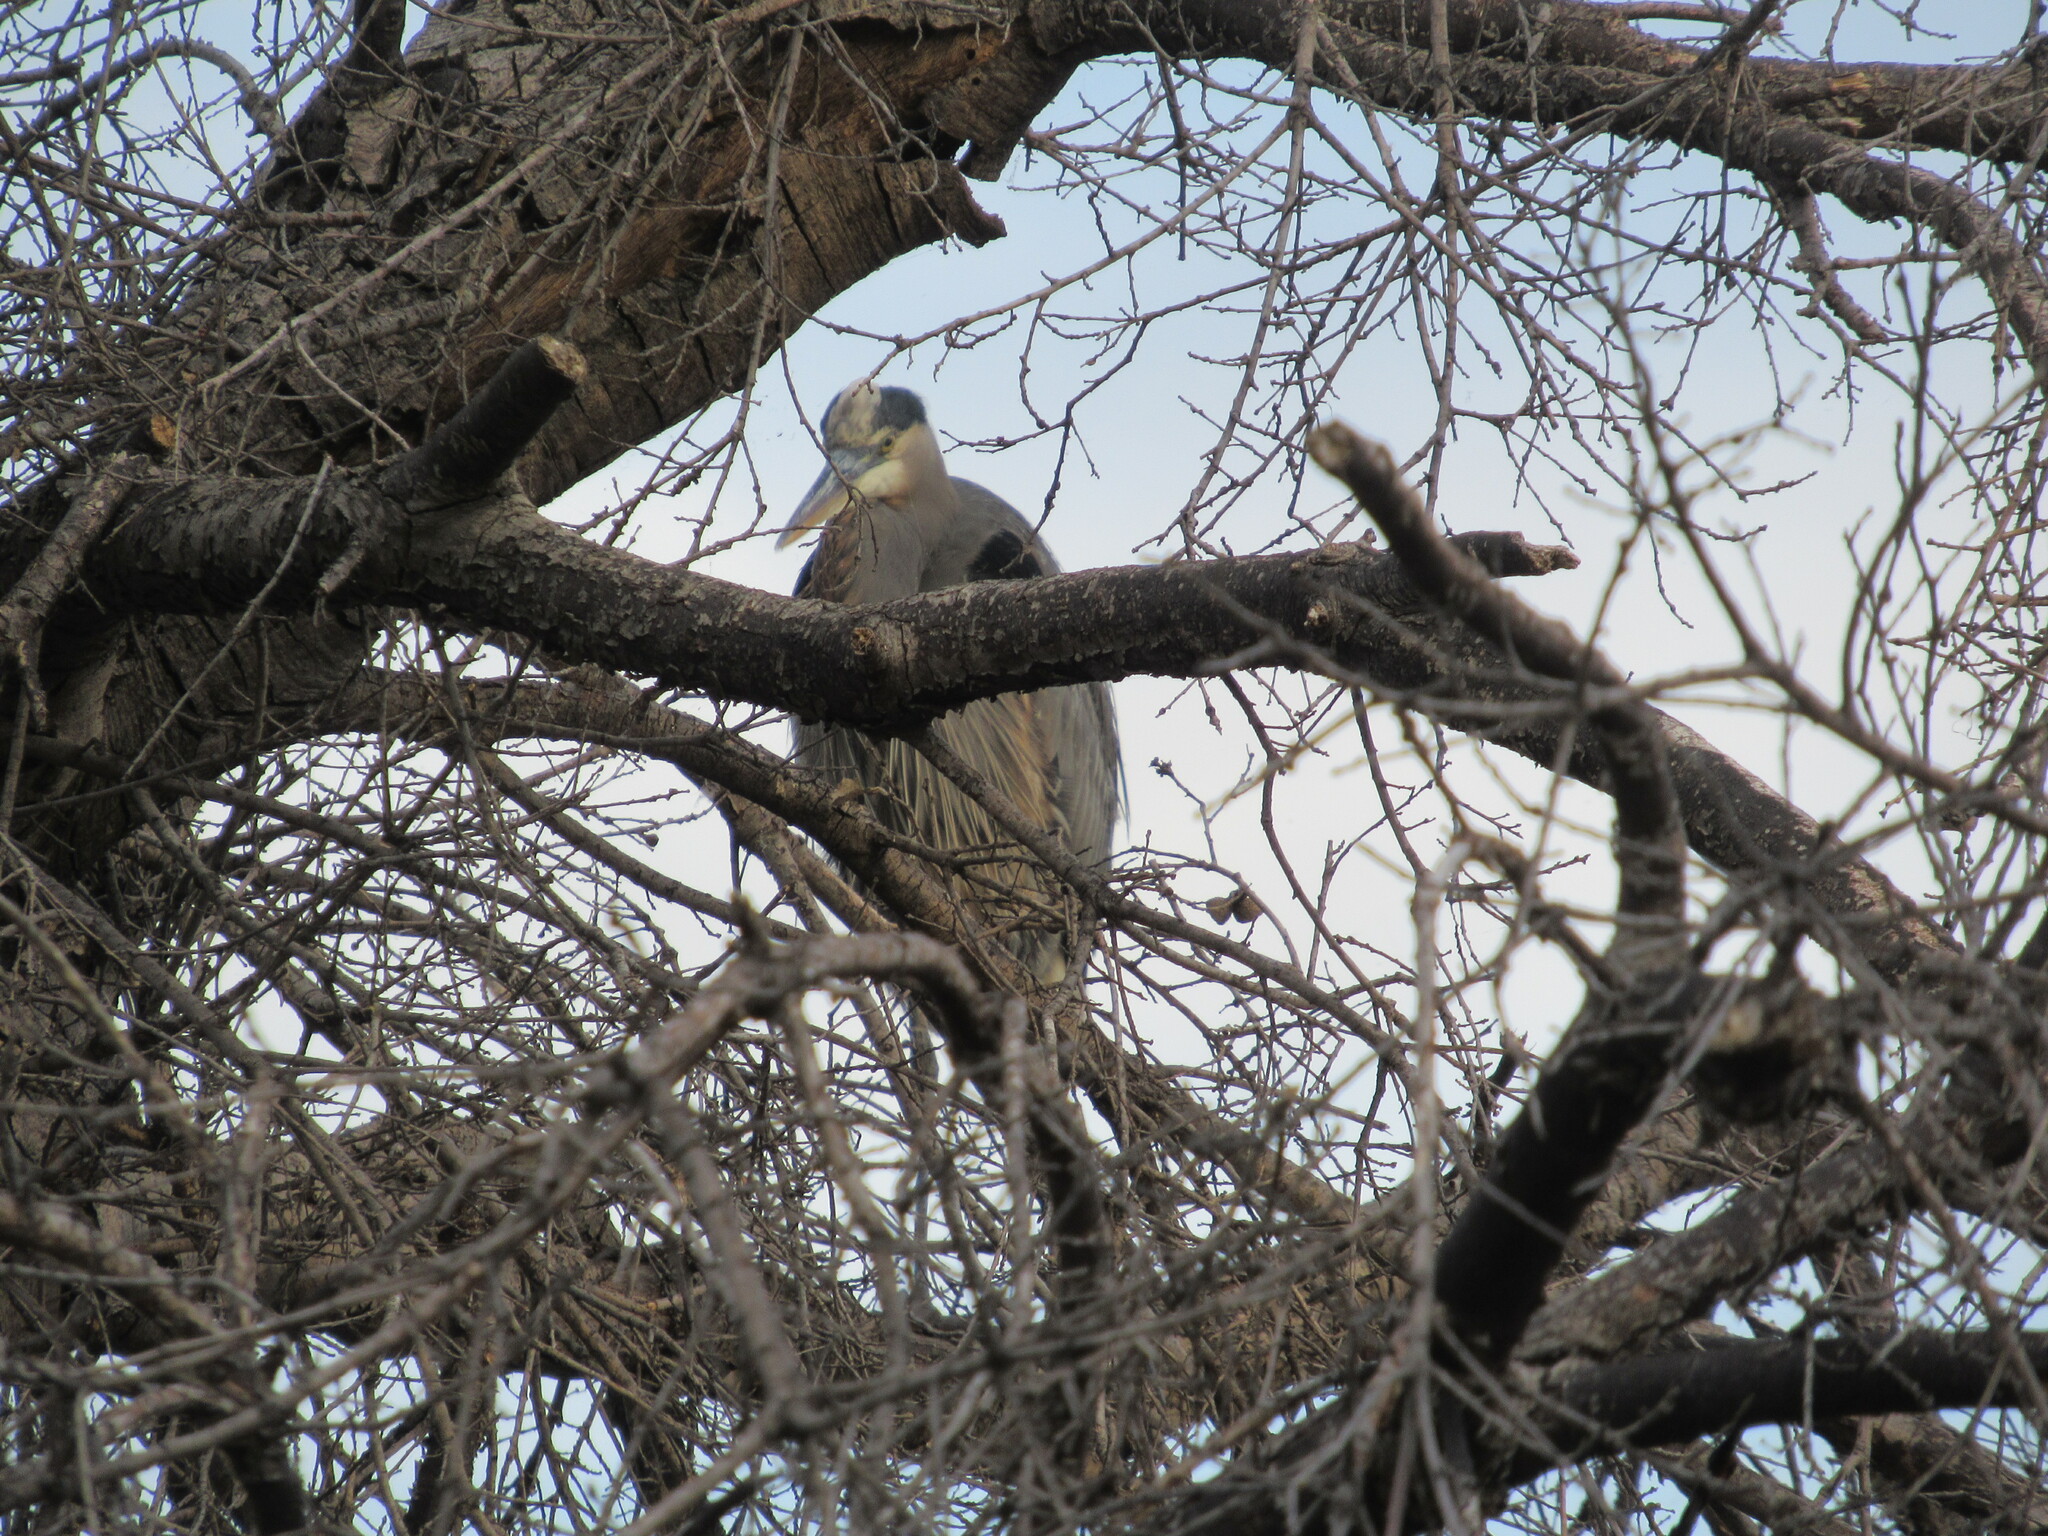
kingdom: Animalia
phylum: Chordata
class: Aves
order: Pelecaniformes
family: Ardeidae
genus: Ardea
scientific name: Ardea herodias
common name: Great blue heron
